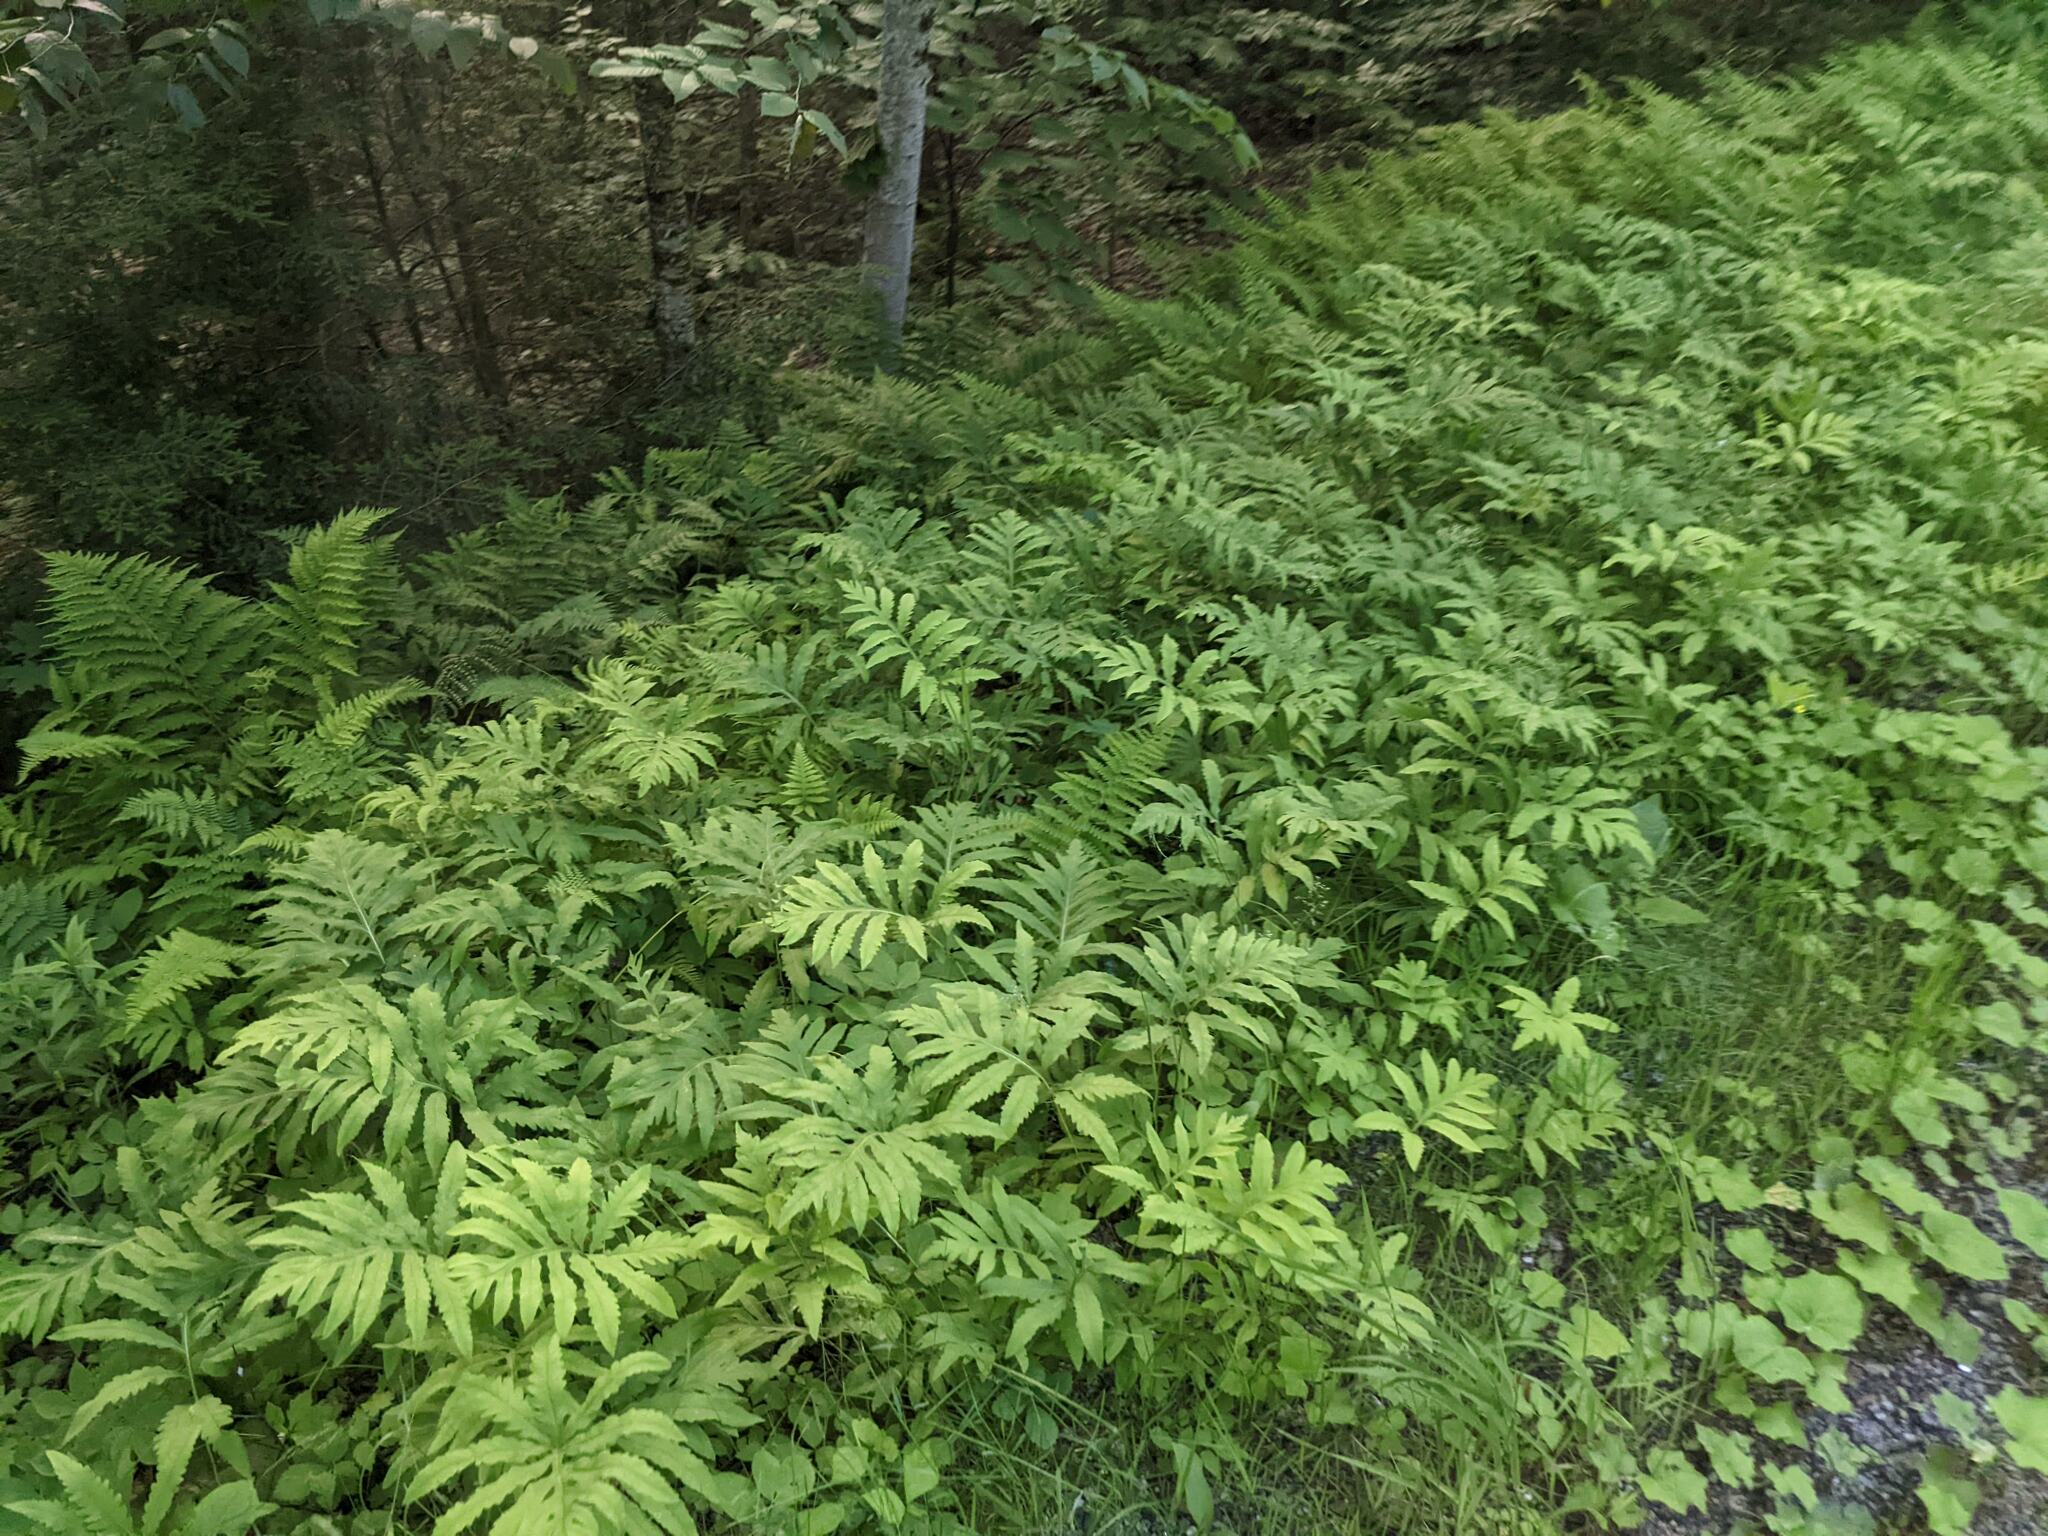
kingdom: Plantae
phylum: Tracheophyta
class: Polypodiopsida
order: Polypodiales
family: Onocleaceae
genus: Onoclea
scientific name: Onoclea sensibilis
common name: Sensitive fern
